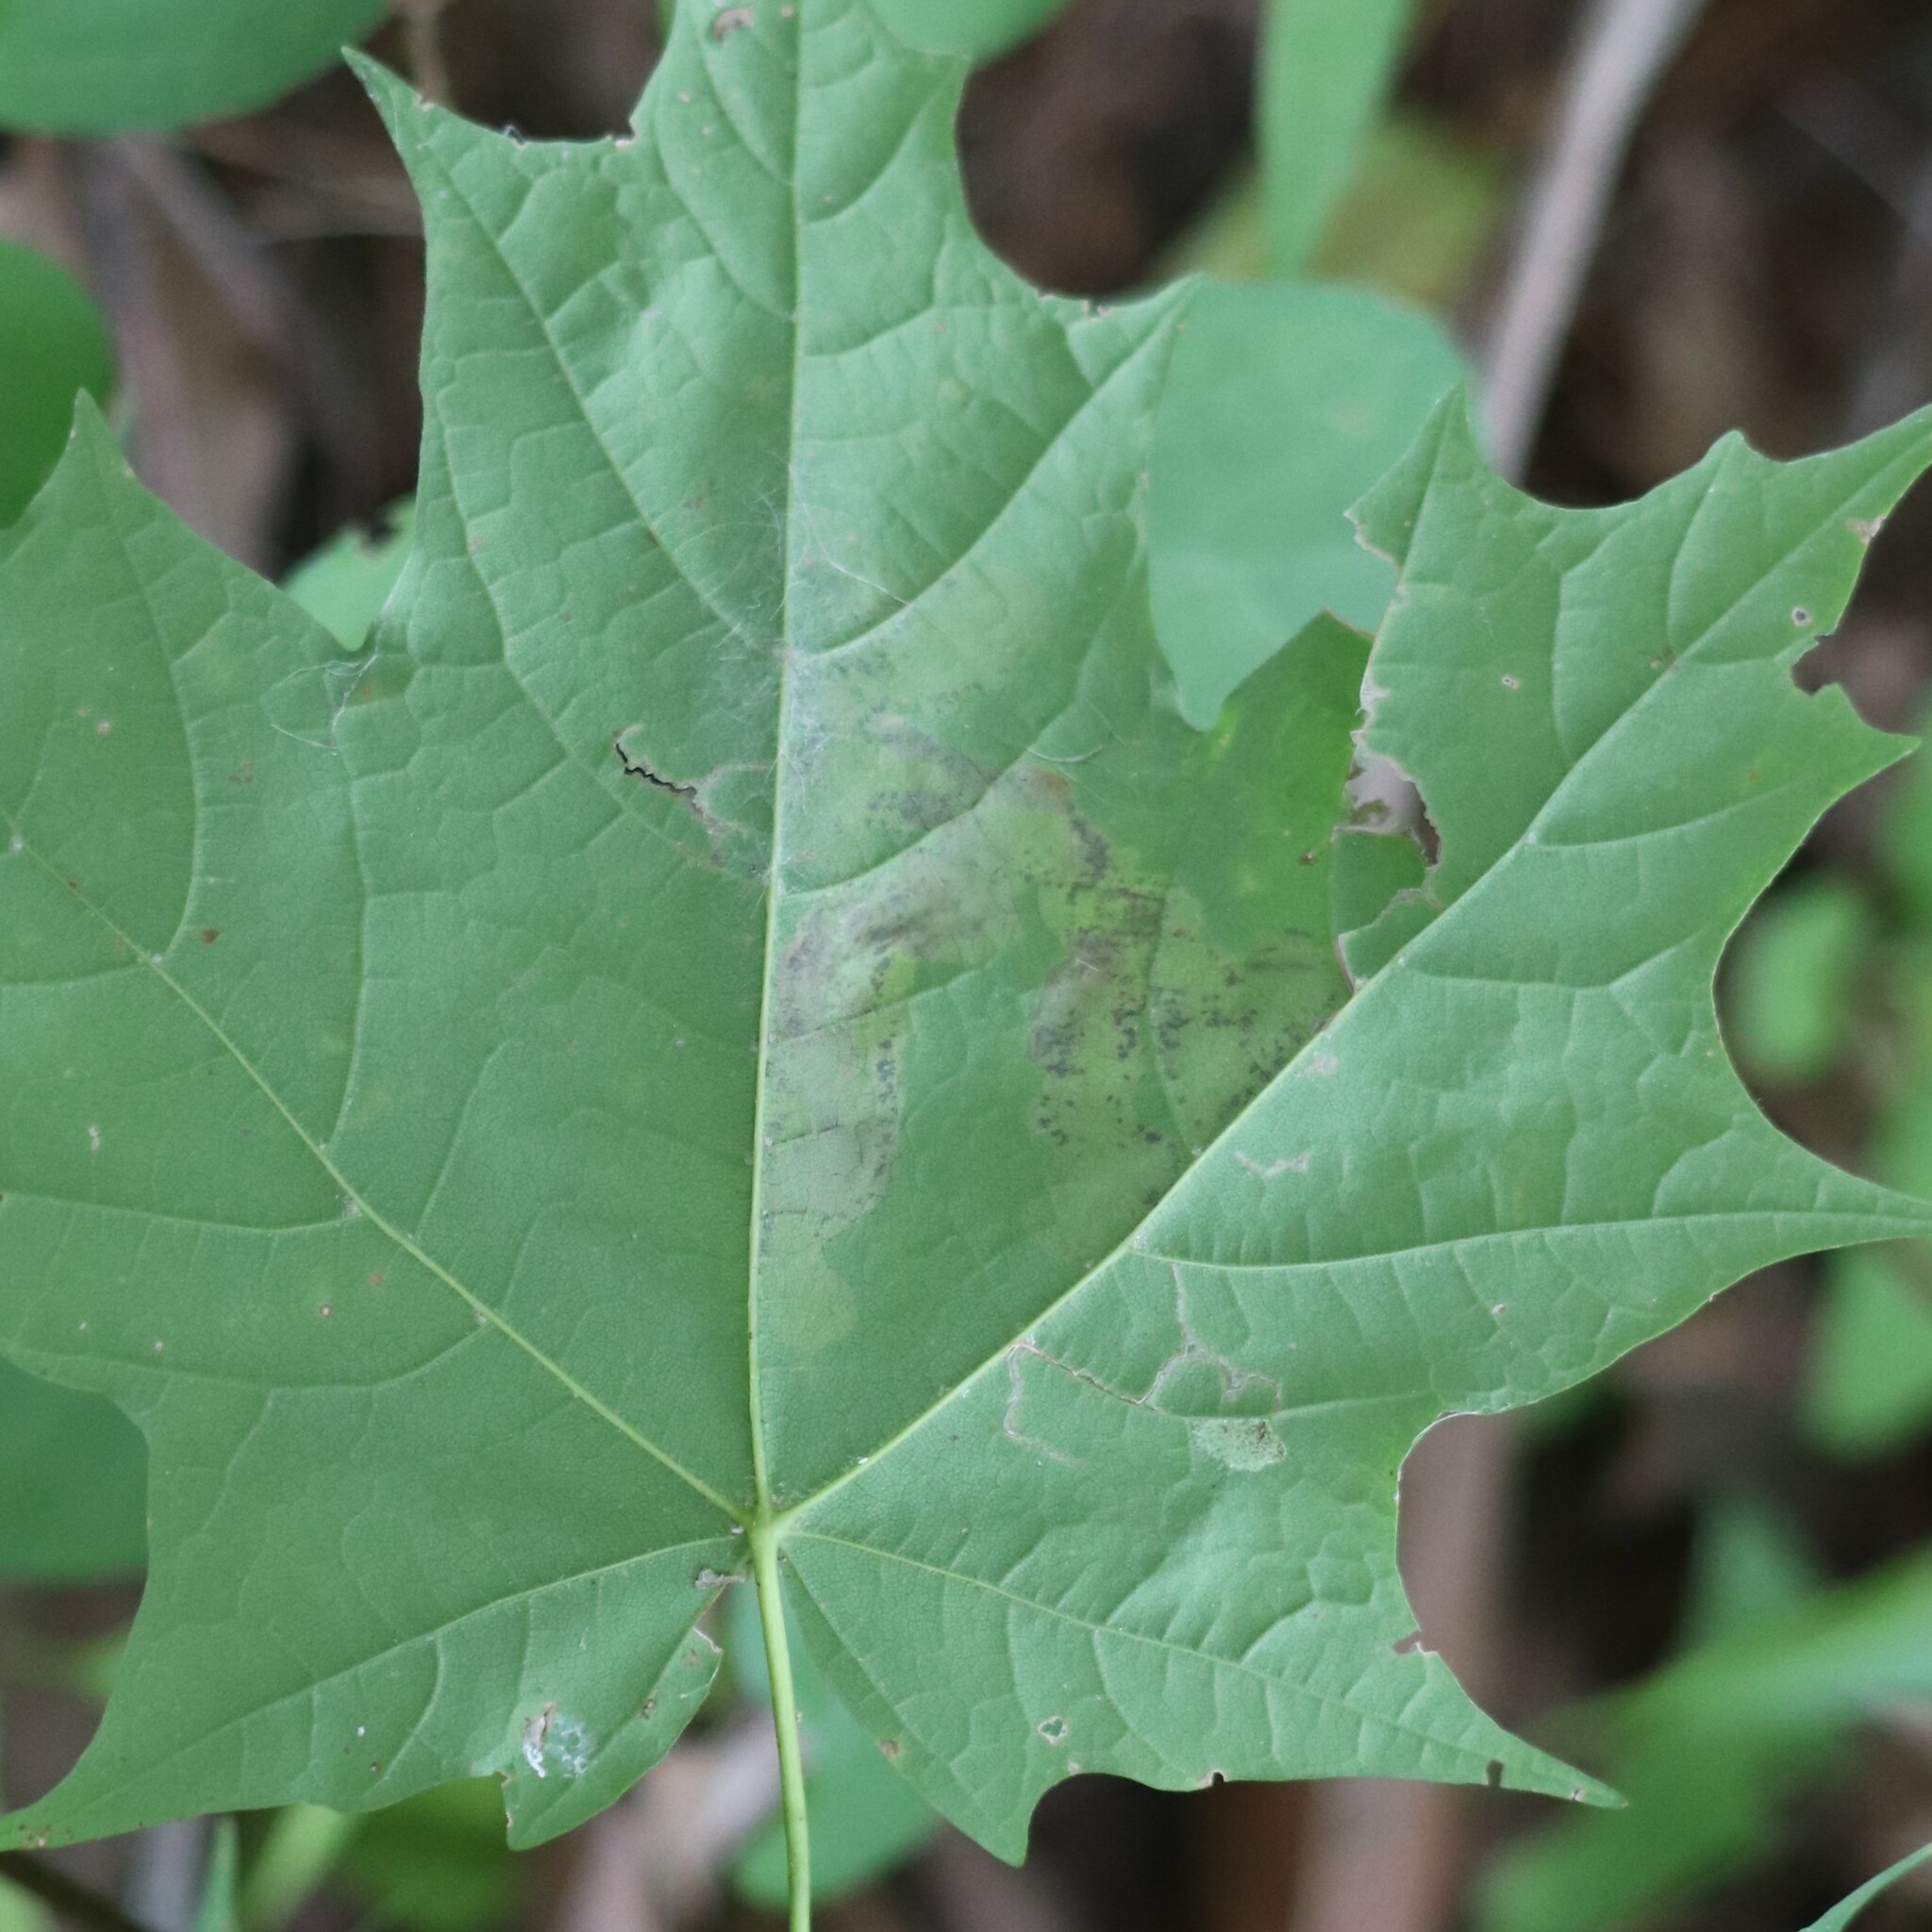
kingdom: Animalia
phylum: Arthropoda
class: Insecta
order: Lepidoptera
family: Gracillariidae
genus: Cameraria
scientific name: Cameraria aceriella
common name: Maple leafblotch miner
